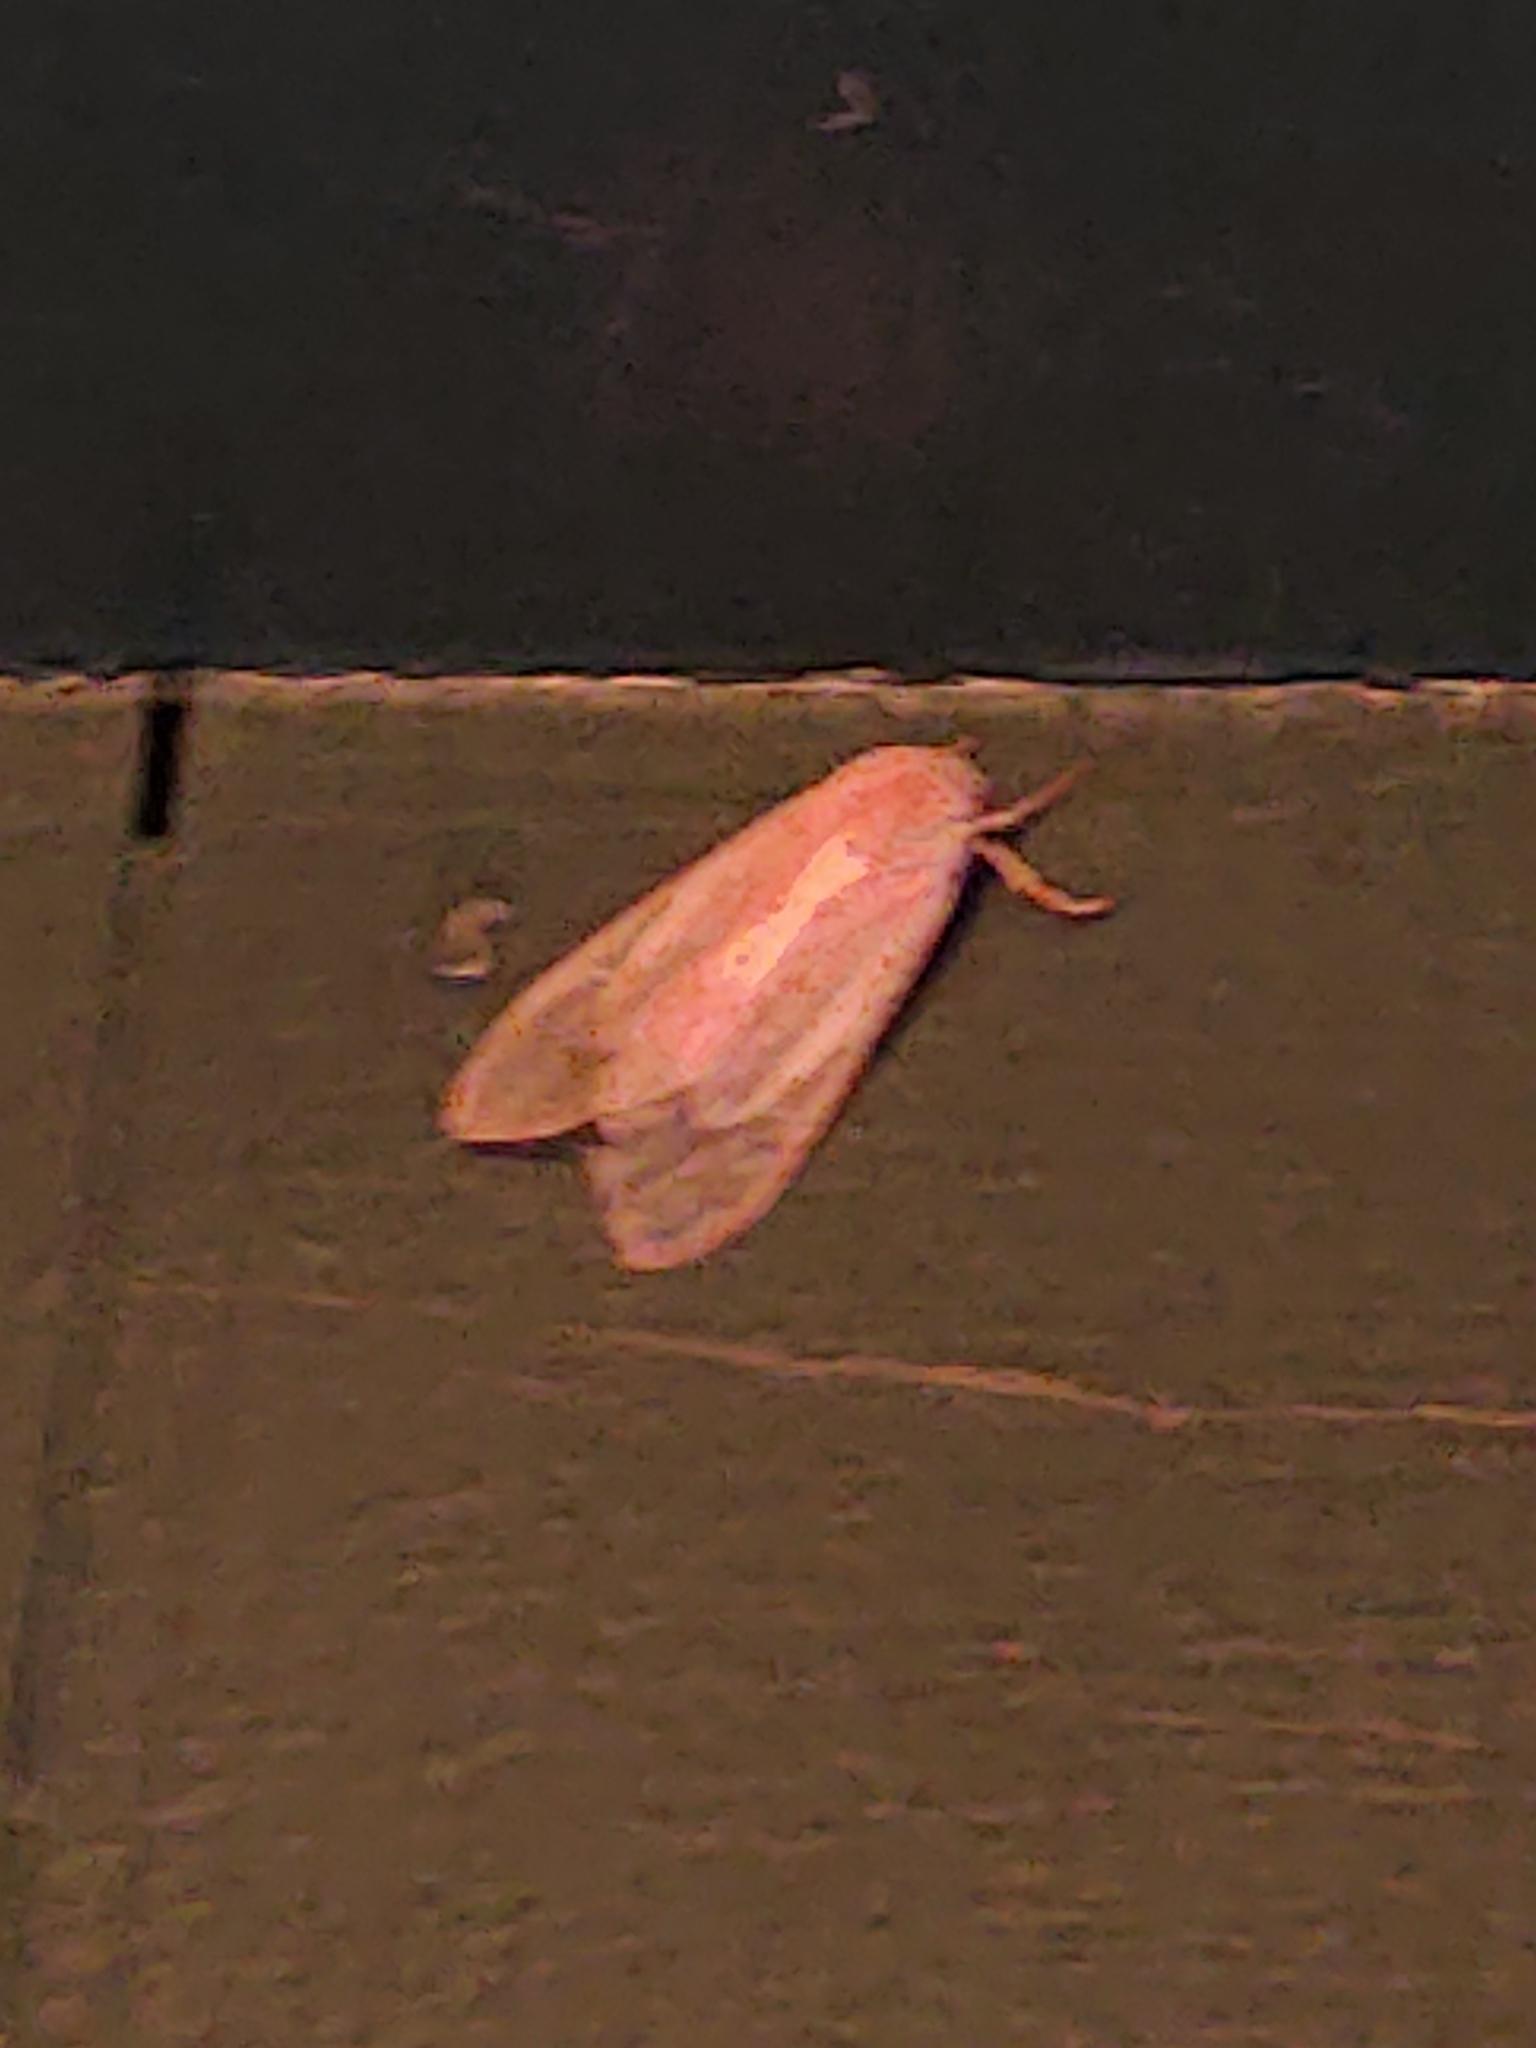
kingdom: Animalia
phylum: Arthropoda
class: Insecta
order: Lepidoptera
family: Erebidae
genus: Halysidota
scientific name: Halysidota
